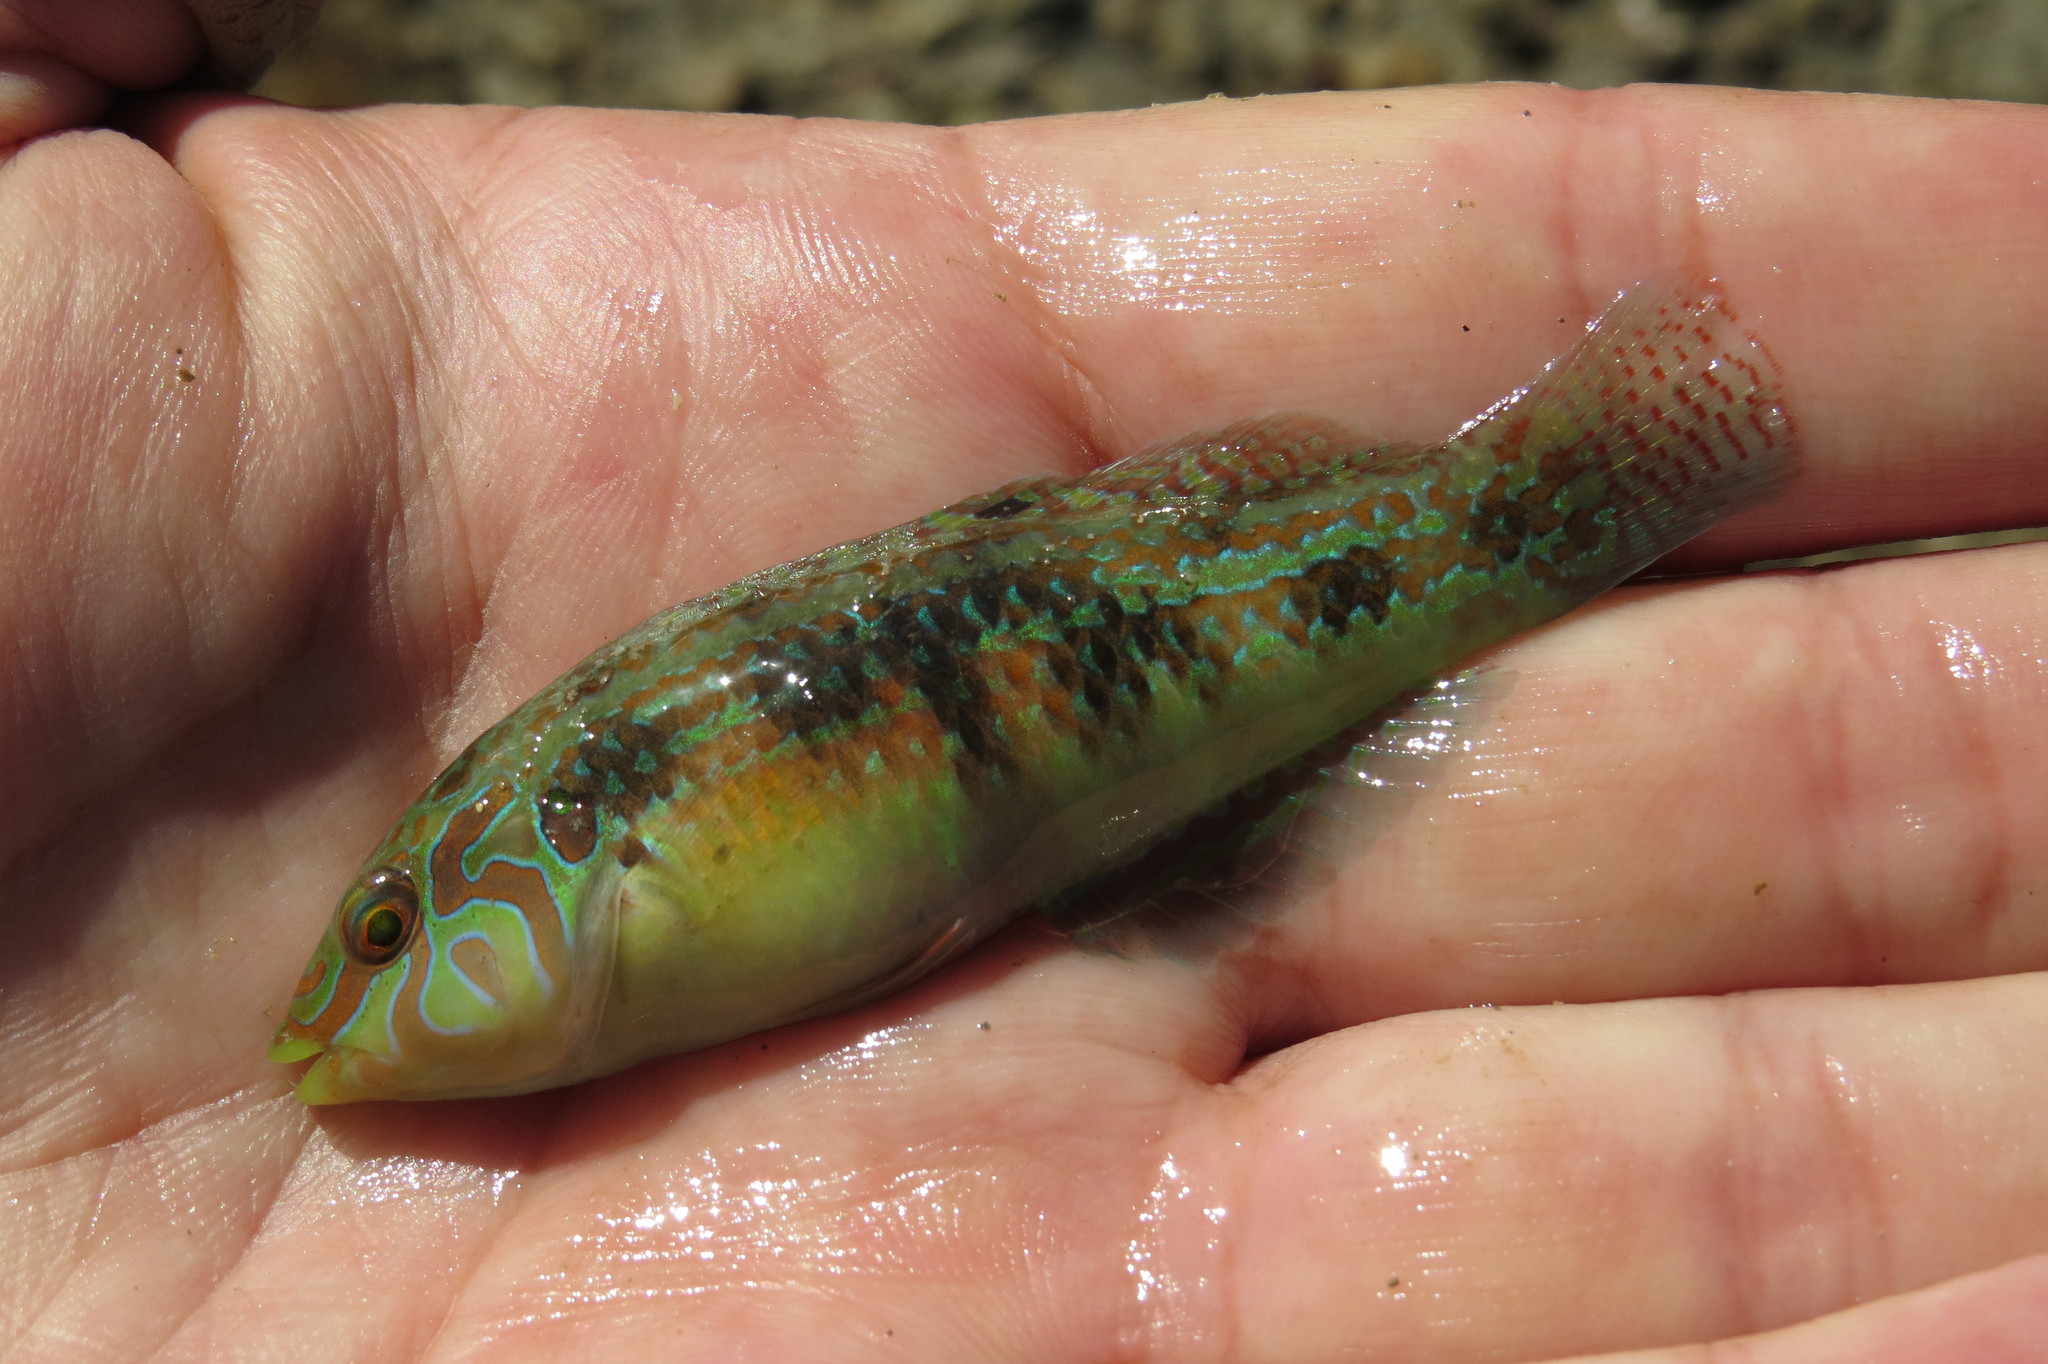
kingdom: Animalia
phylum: Chordata
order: Perciformes
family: Labridae
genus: Halichoeres
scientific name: Halichoeres miniatus
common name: Circle-cheek wrasse
